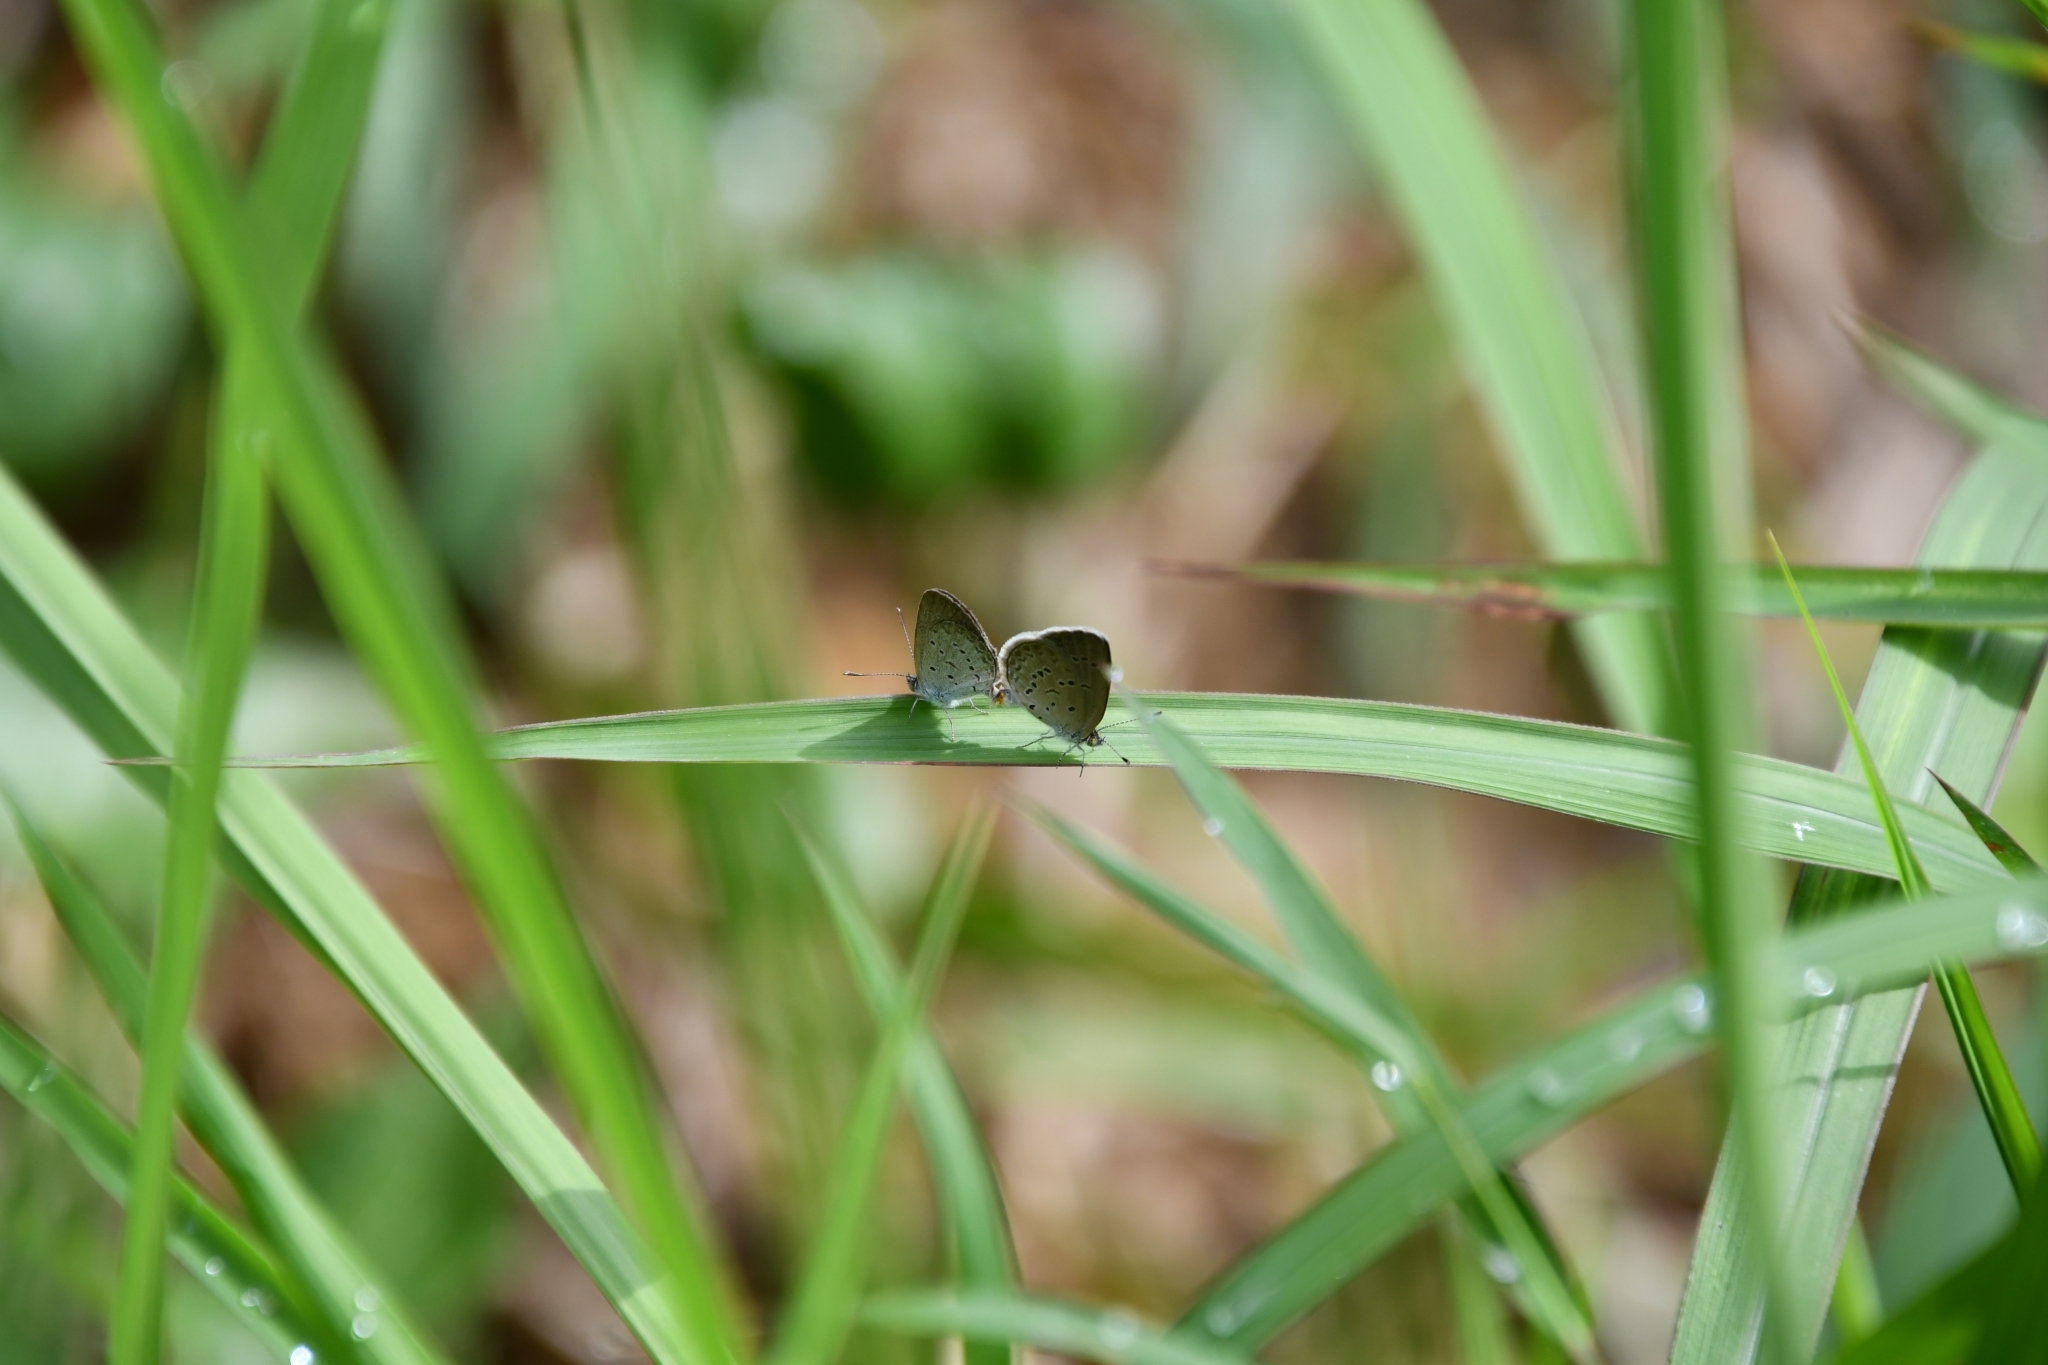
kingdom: Animalia
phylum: Arthropoda
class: Insecta
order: Lepidoptera
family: Lycaenidae
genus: Zizina
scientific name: Zizina otis
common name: Lesser grass blue
